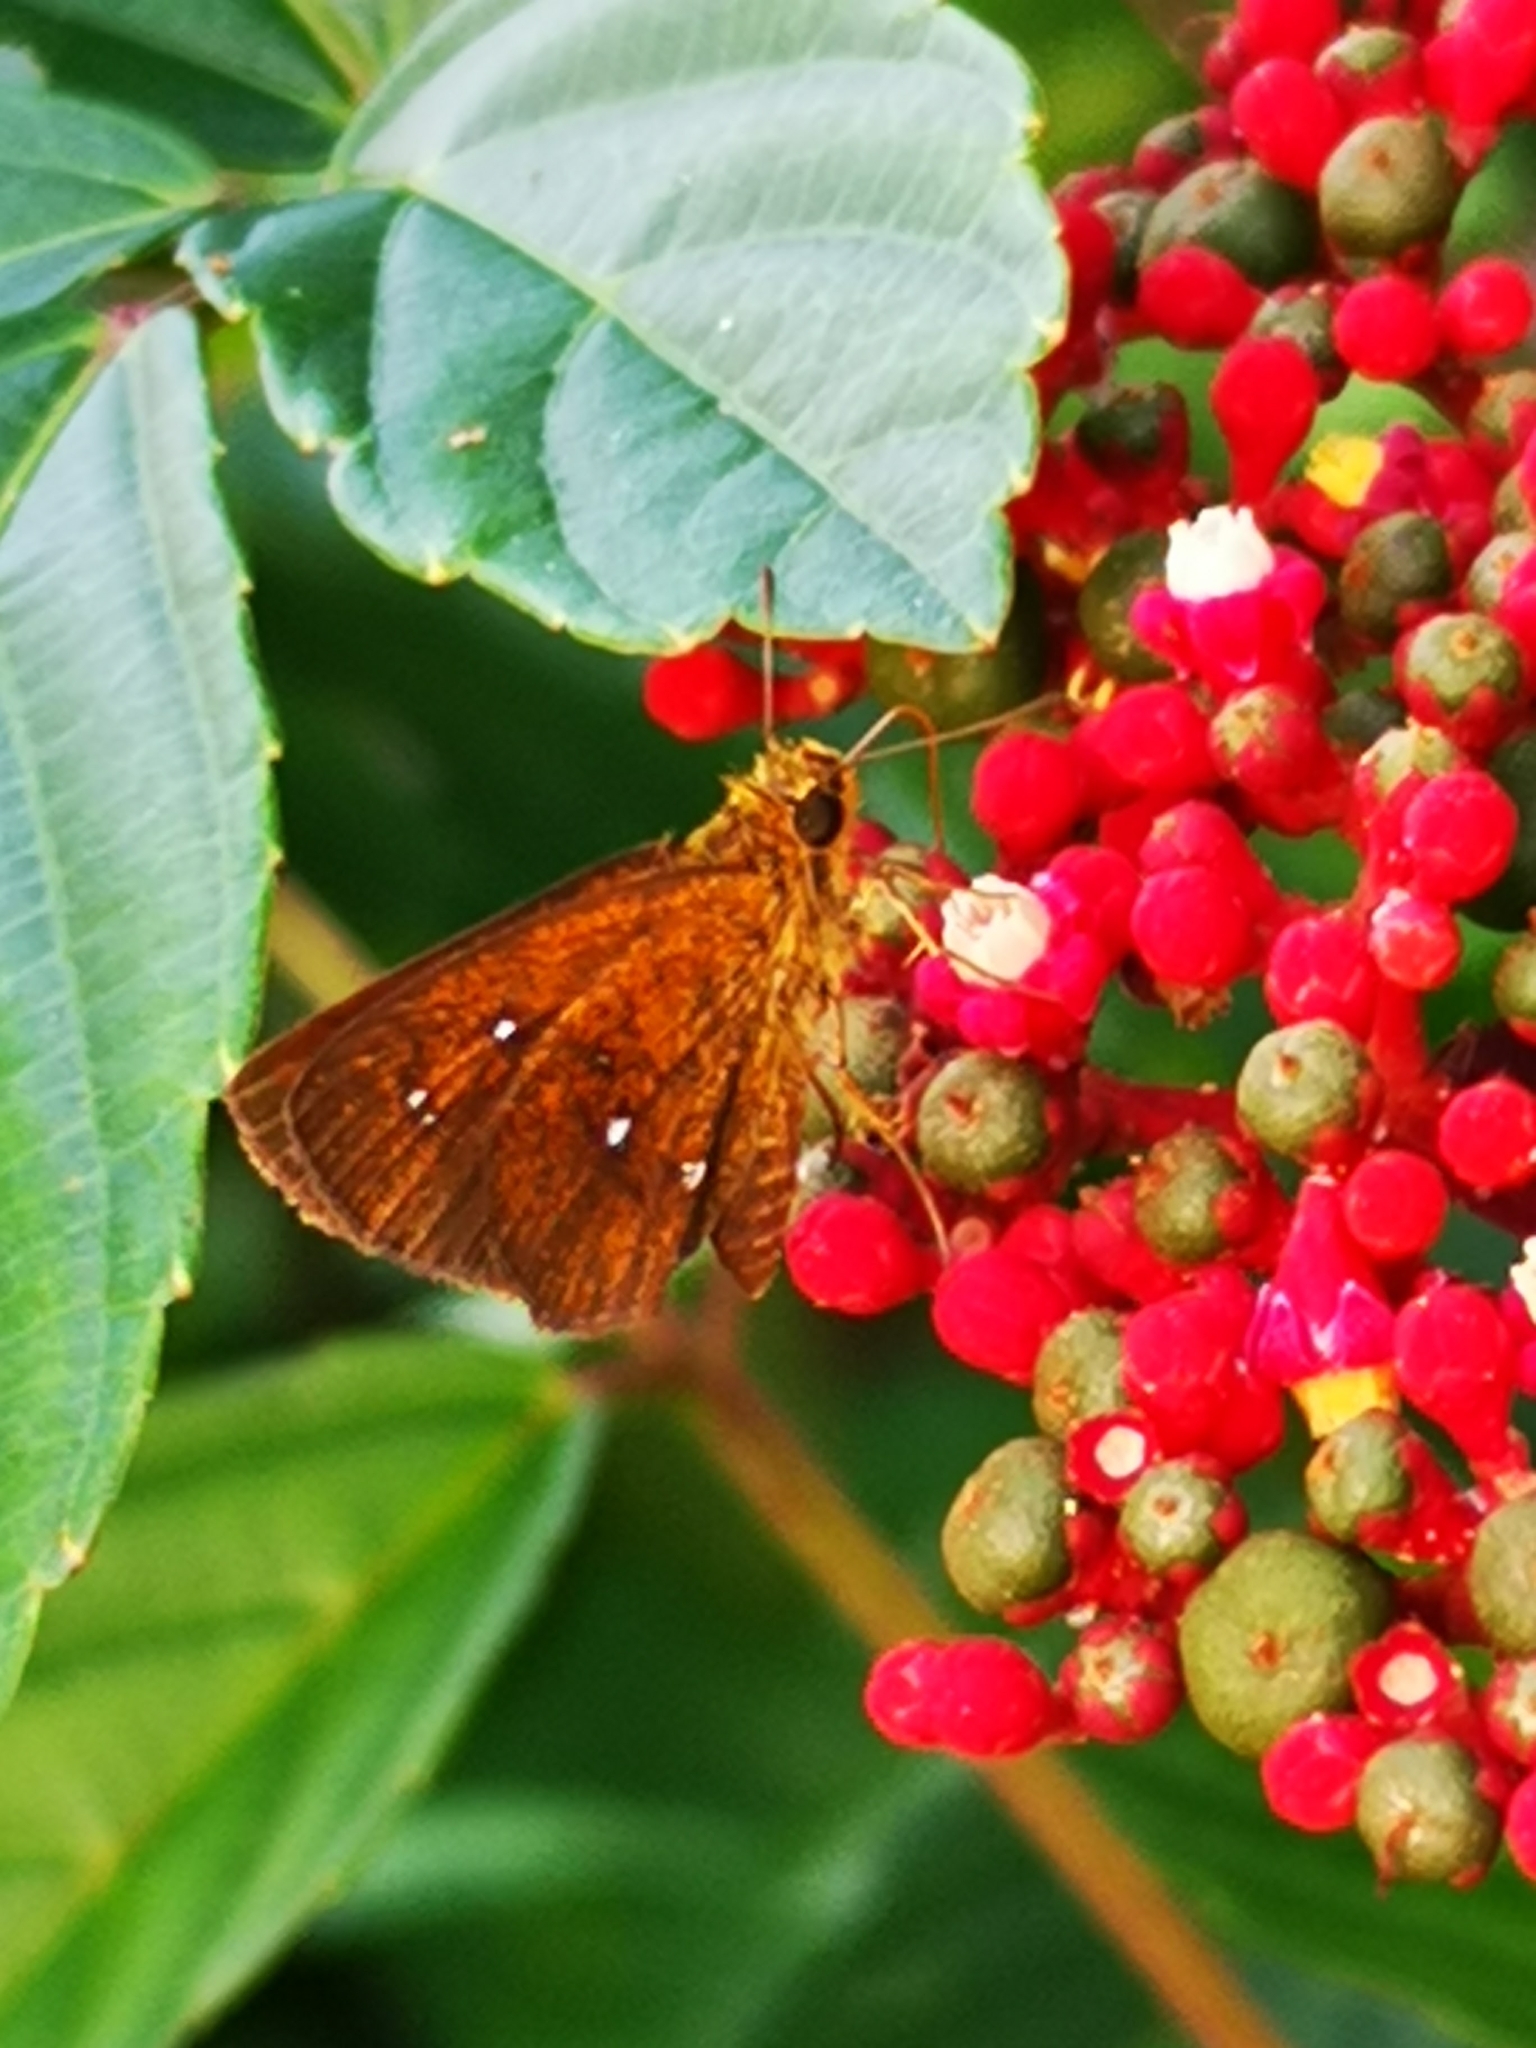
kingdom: Animalia
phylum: Arthropoda
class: Insecta
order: Lepidoptera
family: Hesperiidae
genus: Iambrix
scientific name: Iambrix salsala
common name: Chestnut bob
